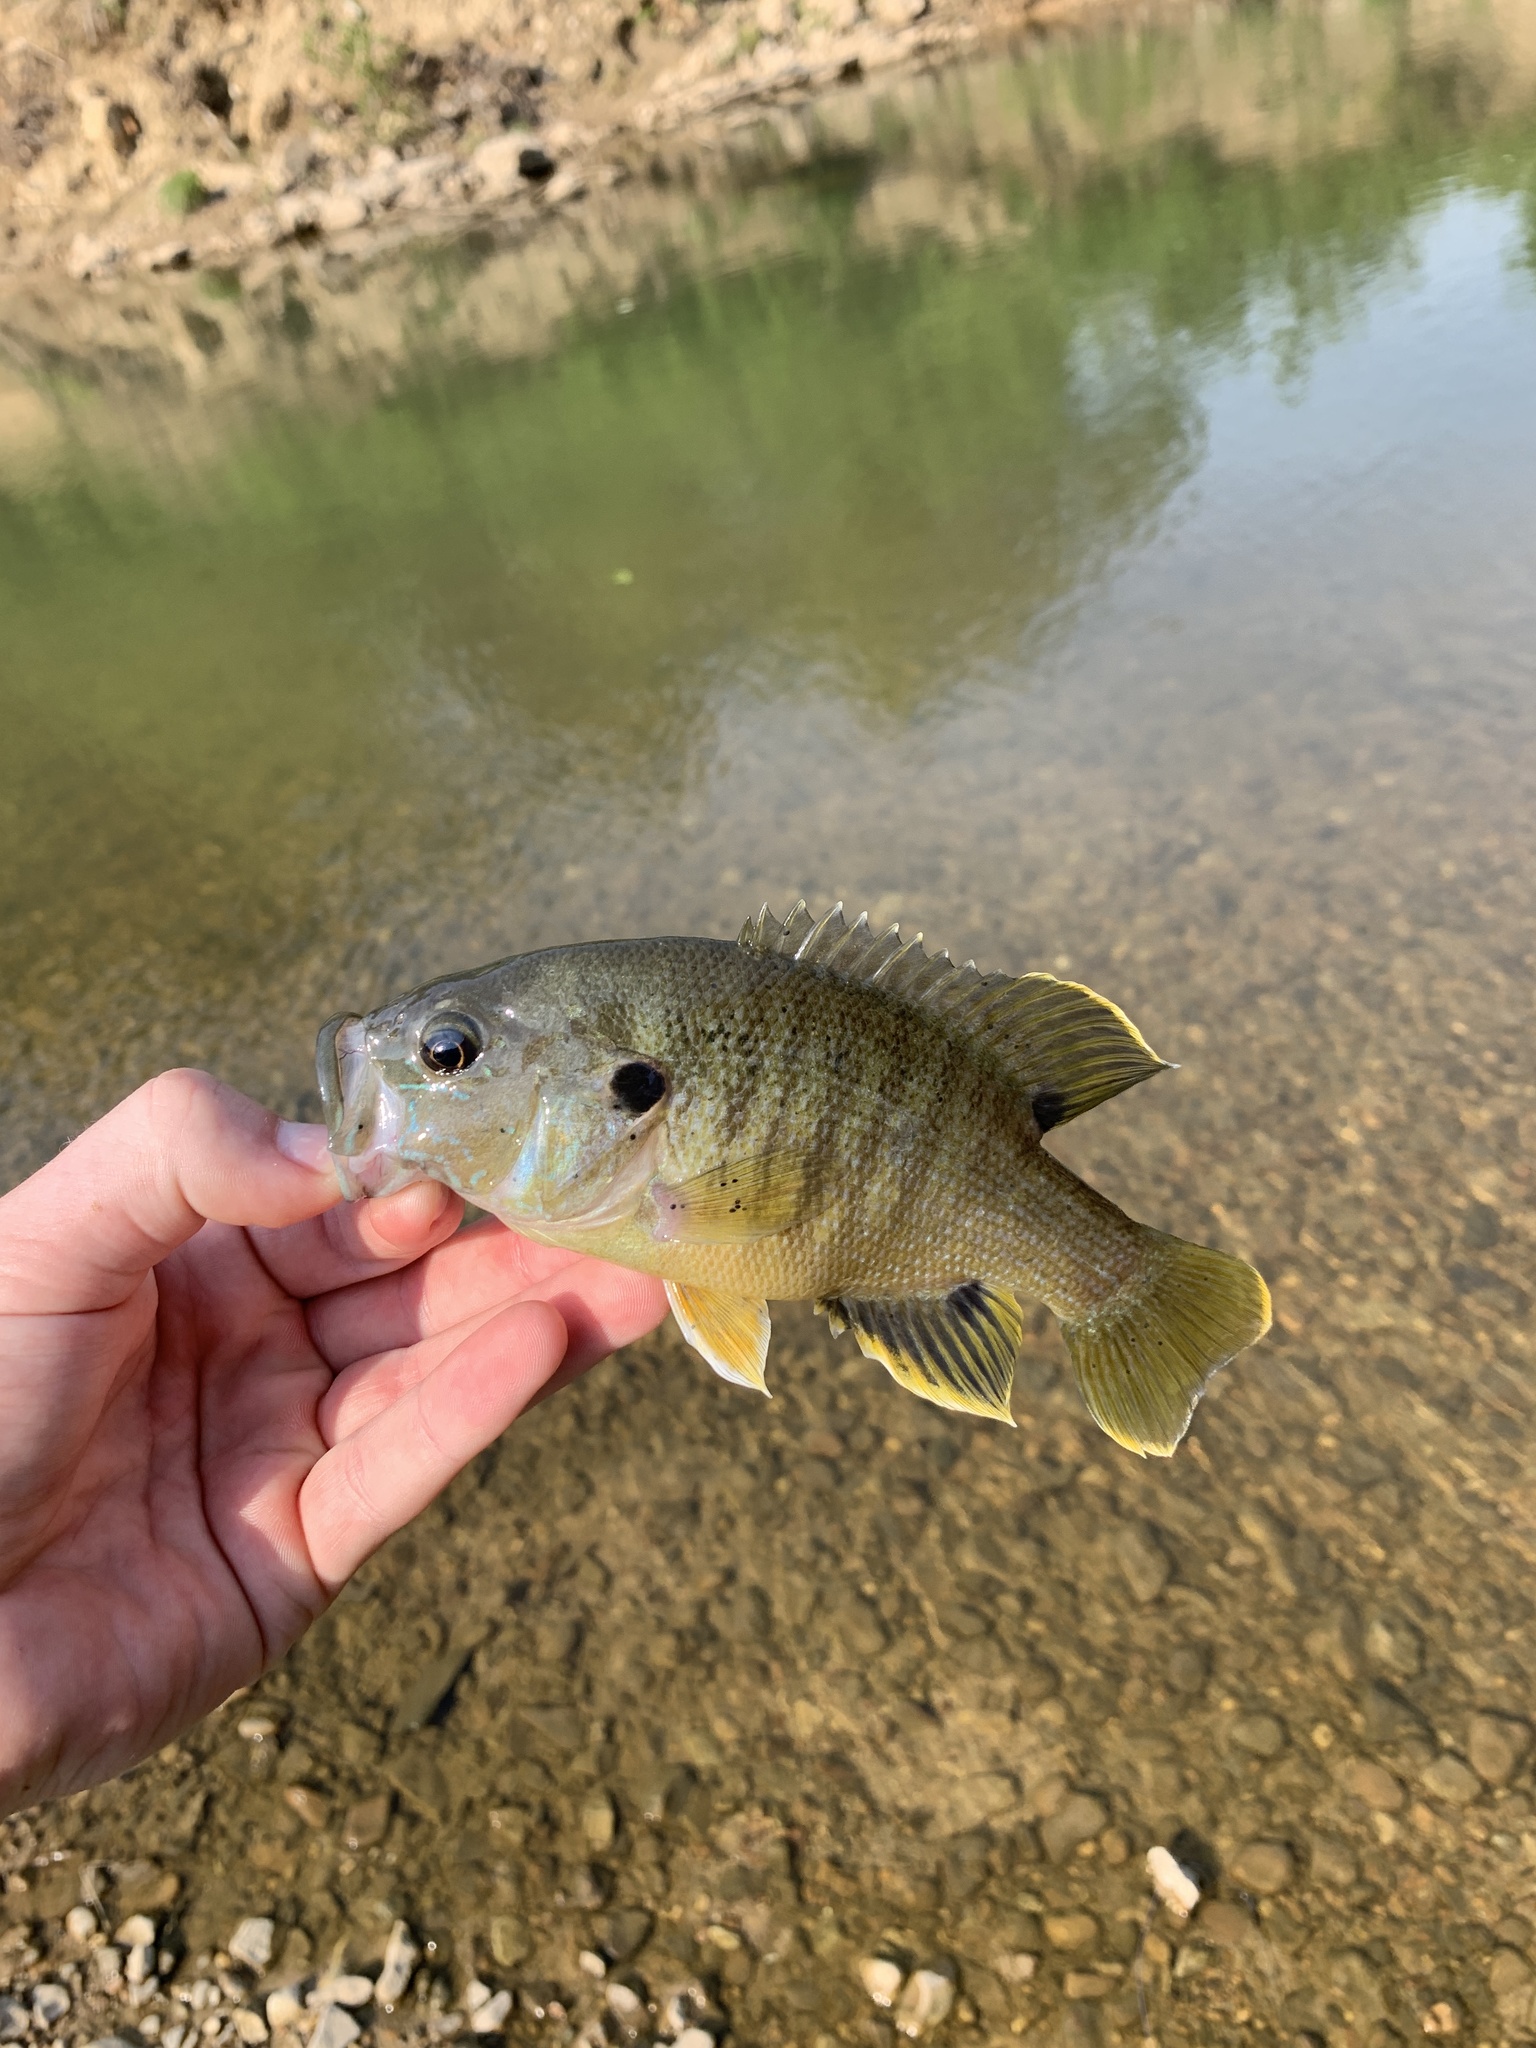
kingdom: Animalia
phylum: Chordata
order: Perciformes
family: Centrarchidae
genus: Lepomis
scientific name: Lepomis cyanellus
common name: Green sunfish
